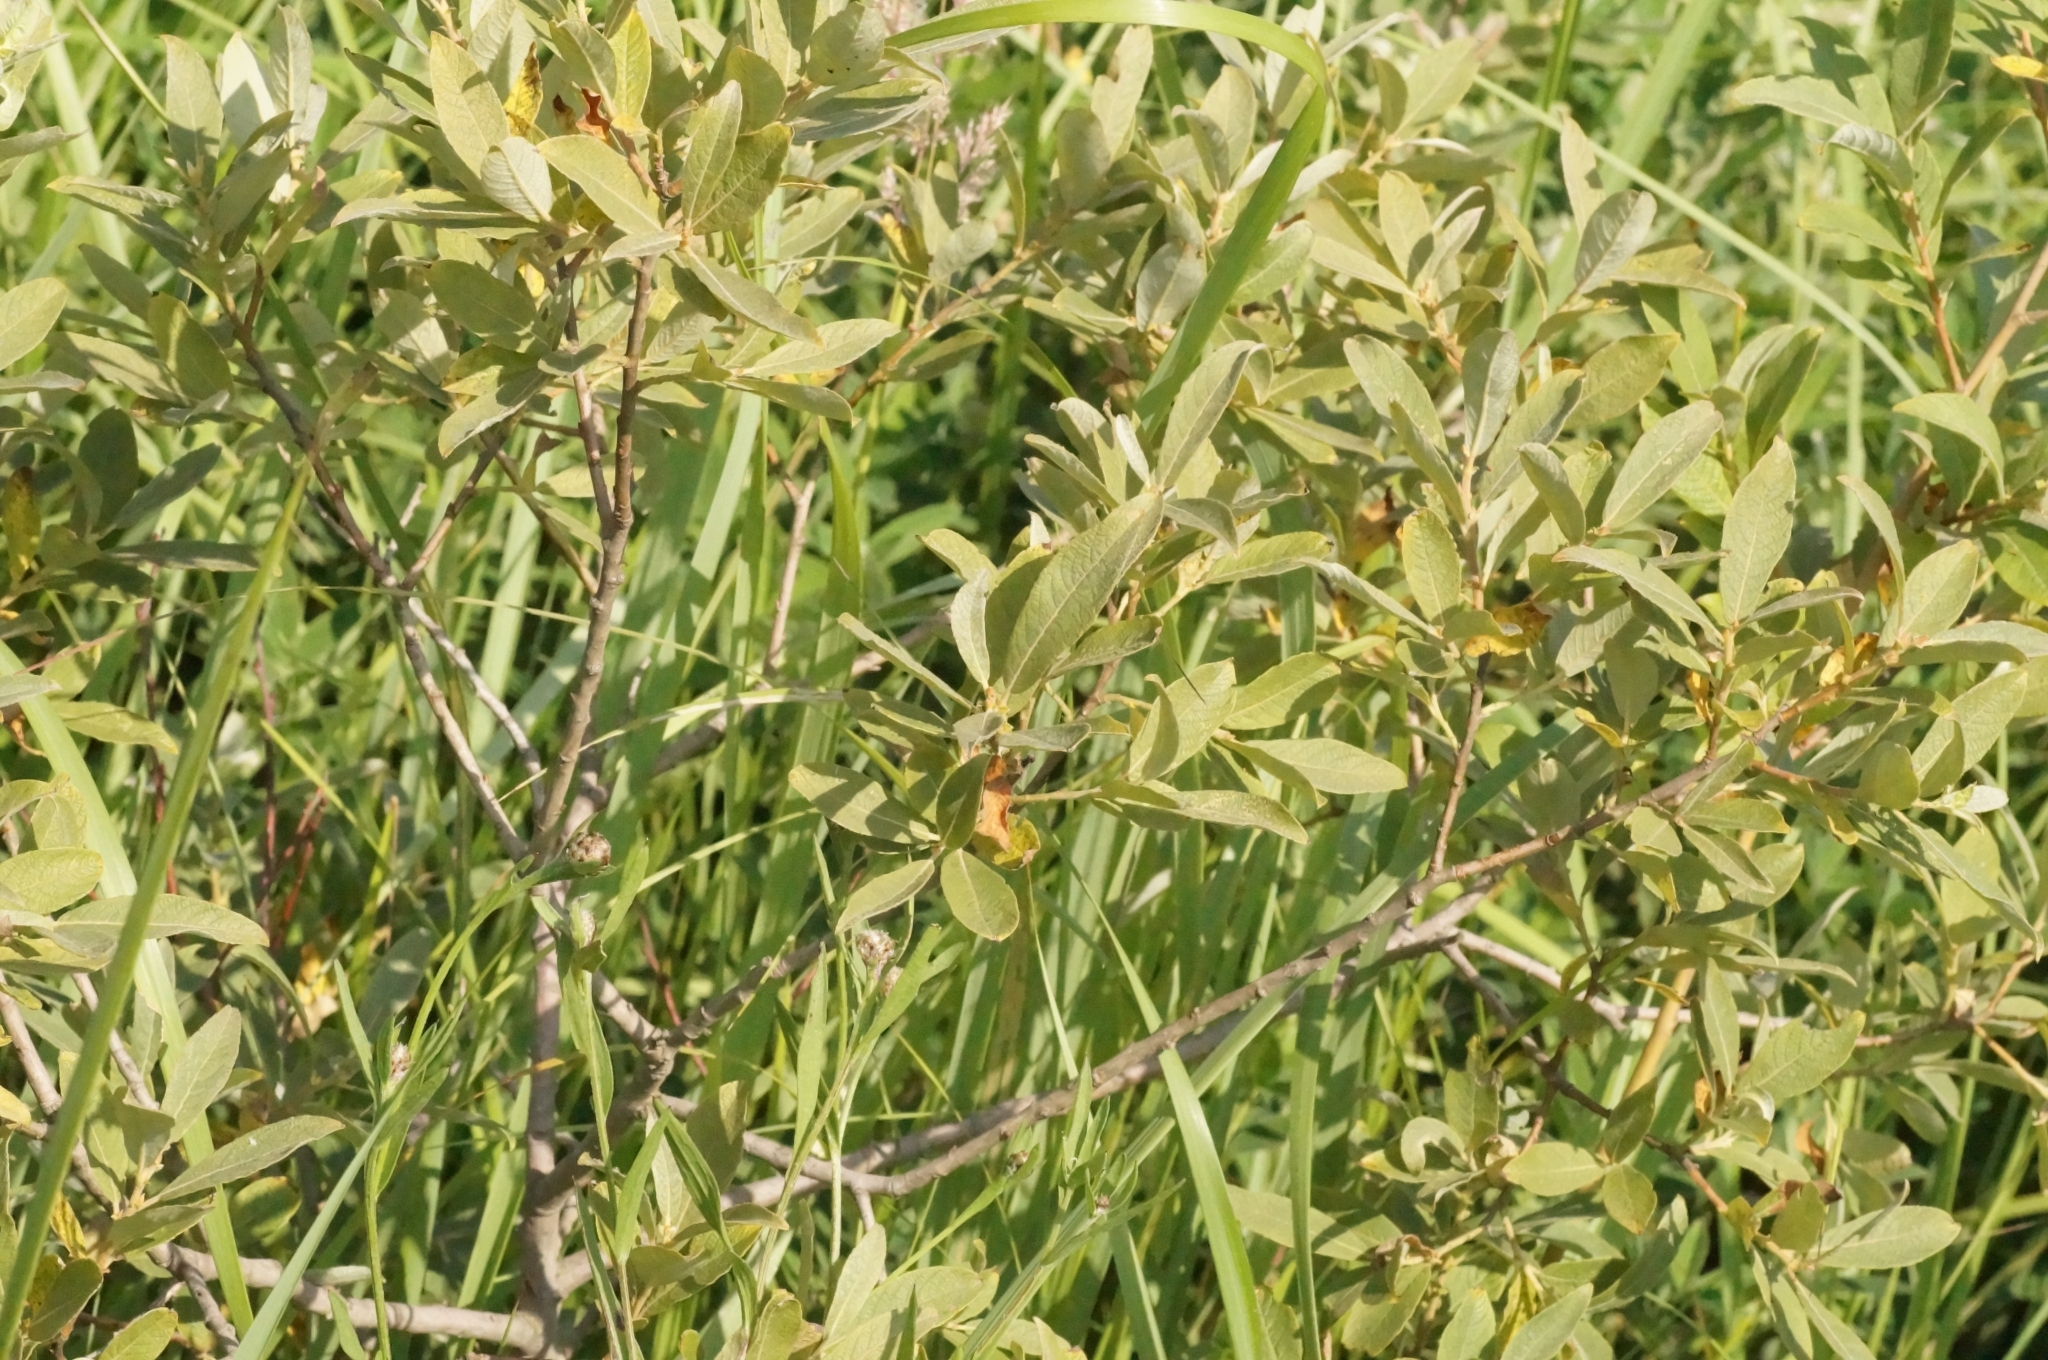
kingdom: Plantae
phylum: Tracheophyta
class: Magnoliopsida
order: Malpighiales
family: Salicaceae
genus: Salix
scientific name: Salix cinerea
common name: Common sallow
